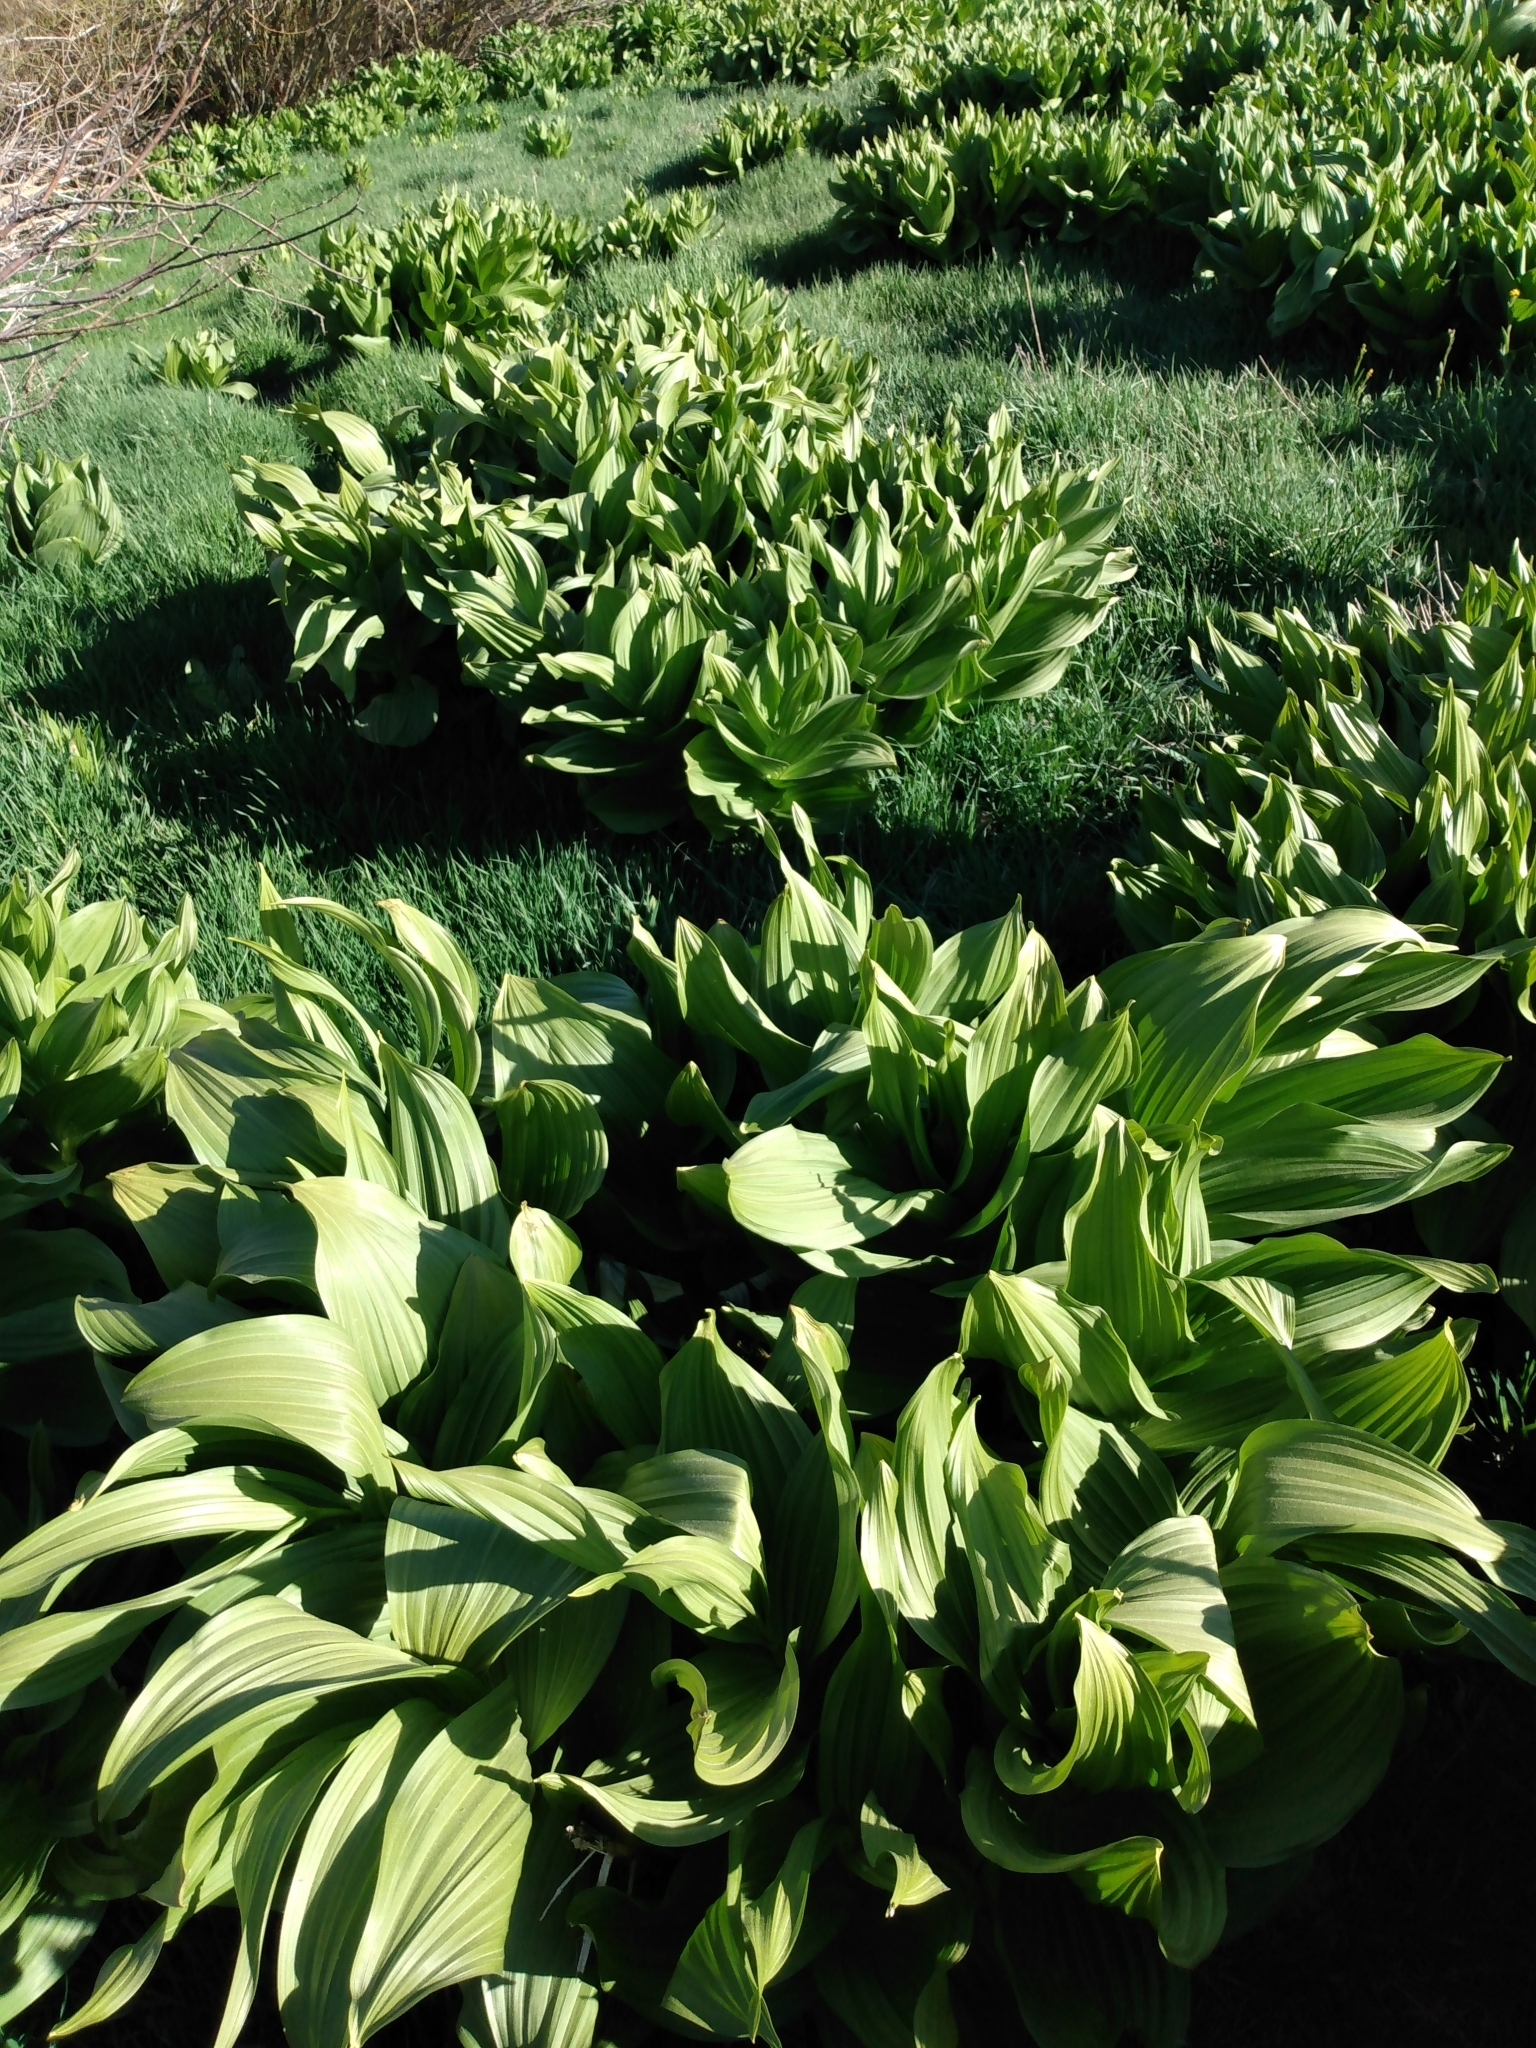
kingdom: Plantae
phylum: Tracheophyta
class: Liliopsida
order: Liliales
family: Melanthiaceae
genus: Veratrum
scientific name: Veratrum californicum
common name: California veratrum
